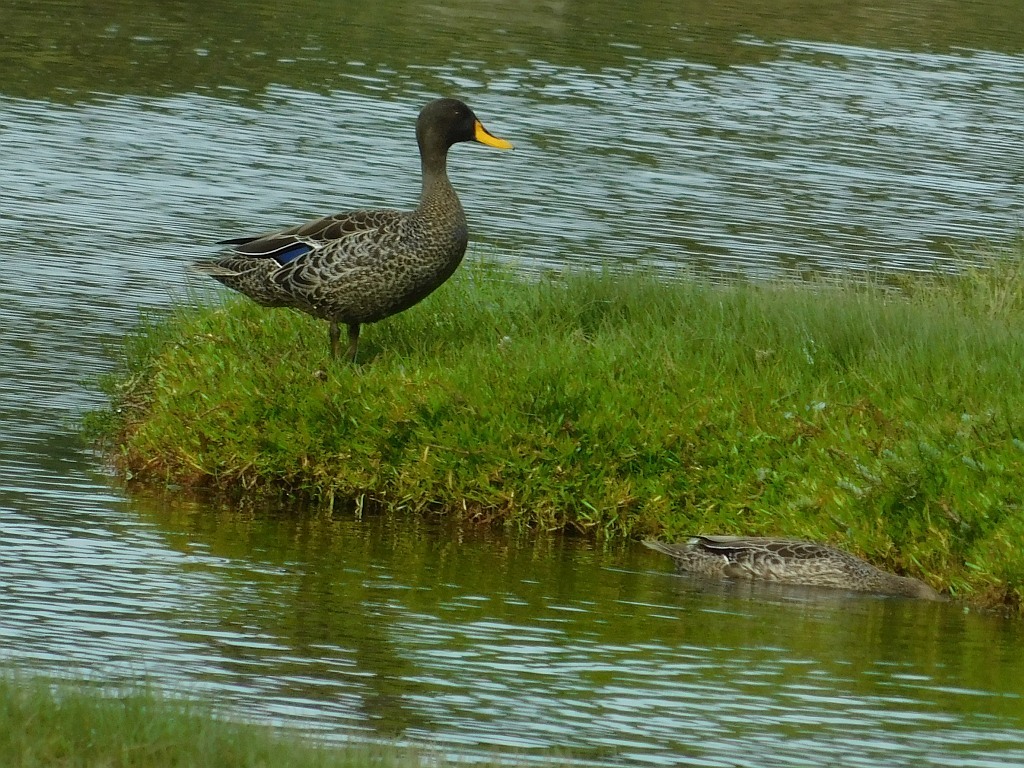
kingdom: Animalia
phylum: Chordata
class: Aves
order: Anseriformes
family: Anatidae
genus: Anas
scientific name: Anas undulata
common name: Yellow-billed duck
